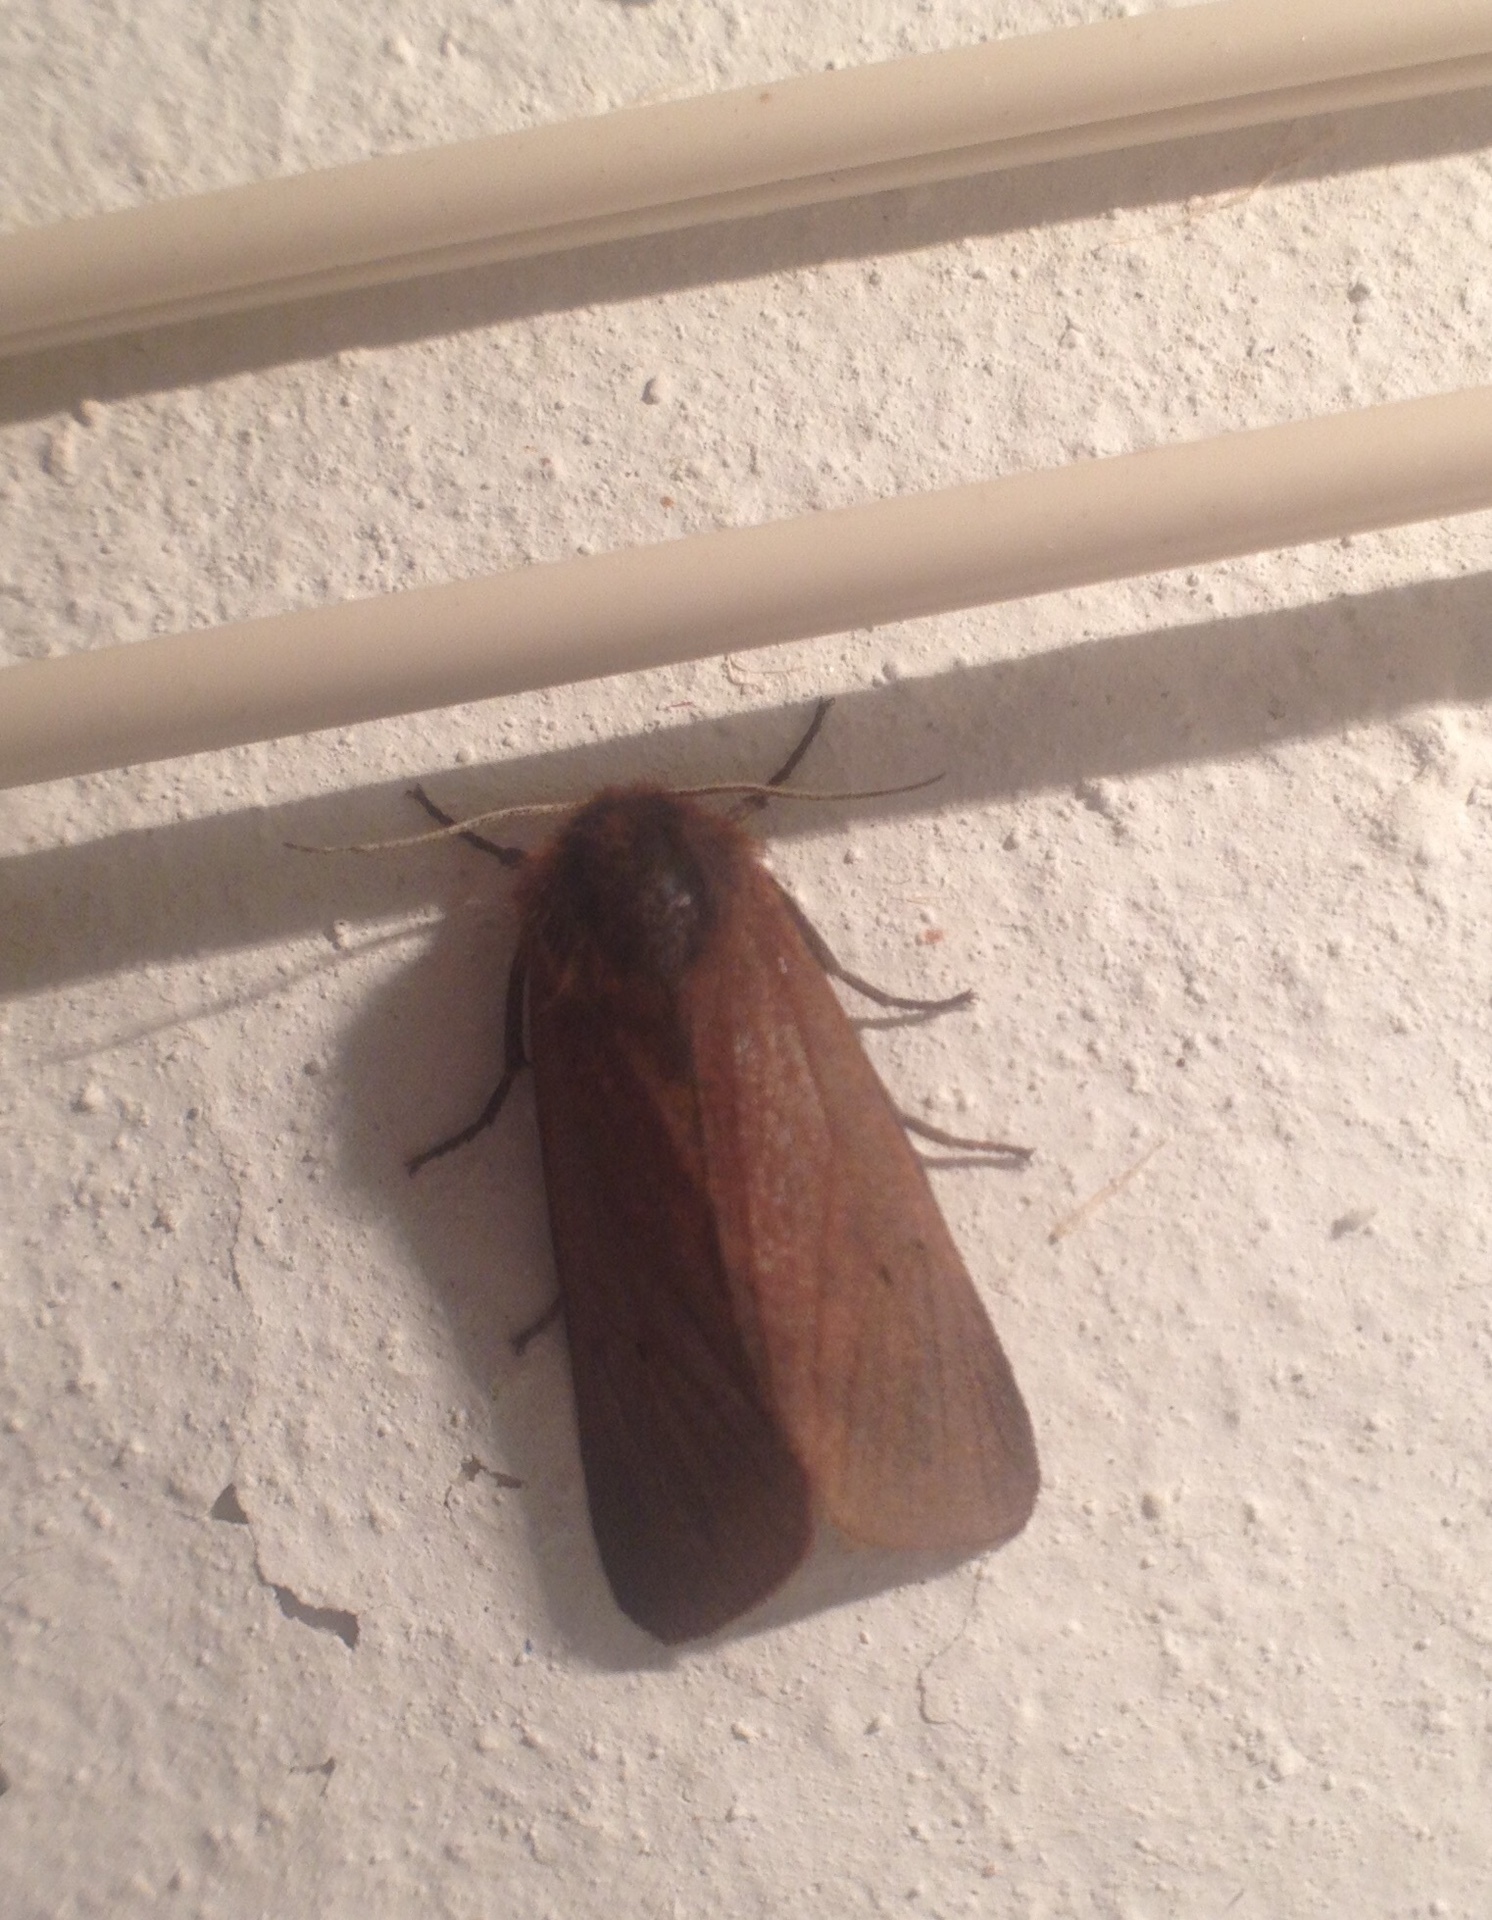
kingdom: Animalia
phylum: Arthropoda
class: Insecta
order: Lepidoptera
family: Erebidae
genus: Phragmatobia
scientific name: Phragmatobia fuliginosa
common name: Ruby tiger
